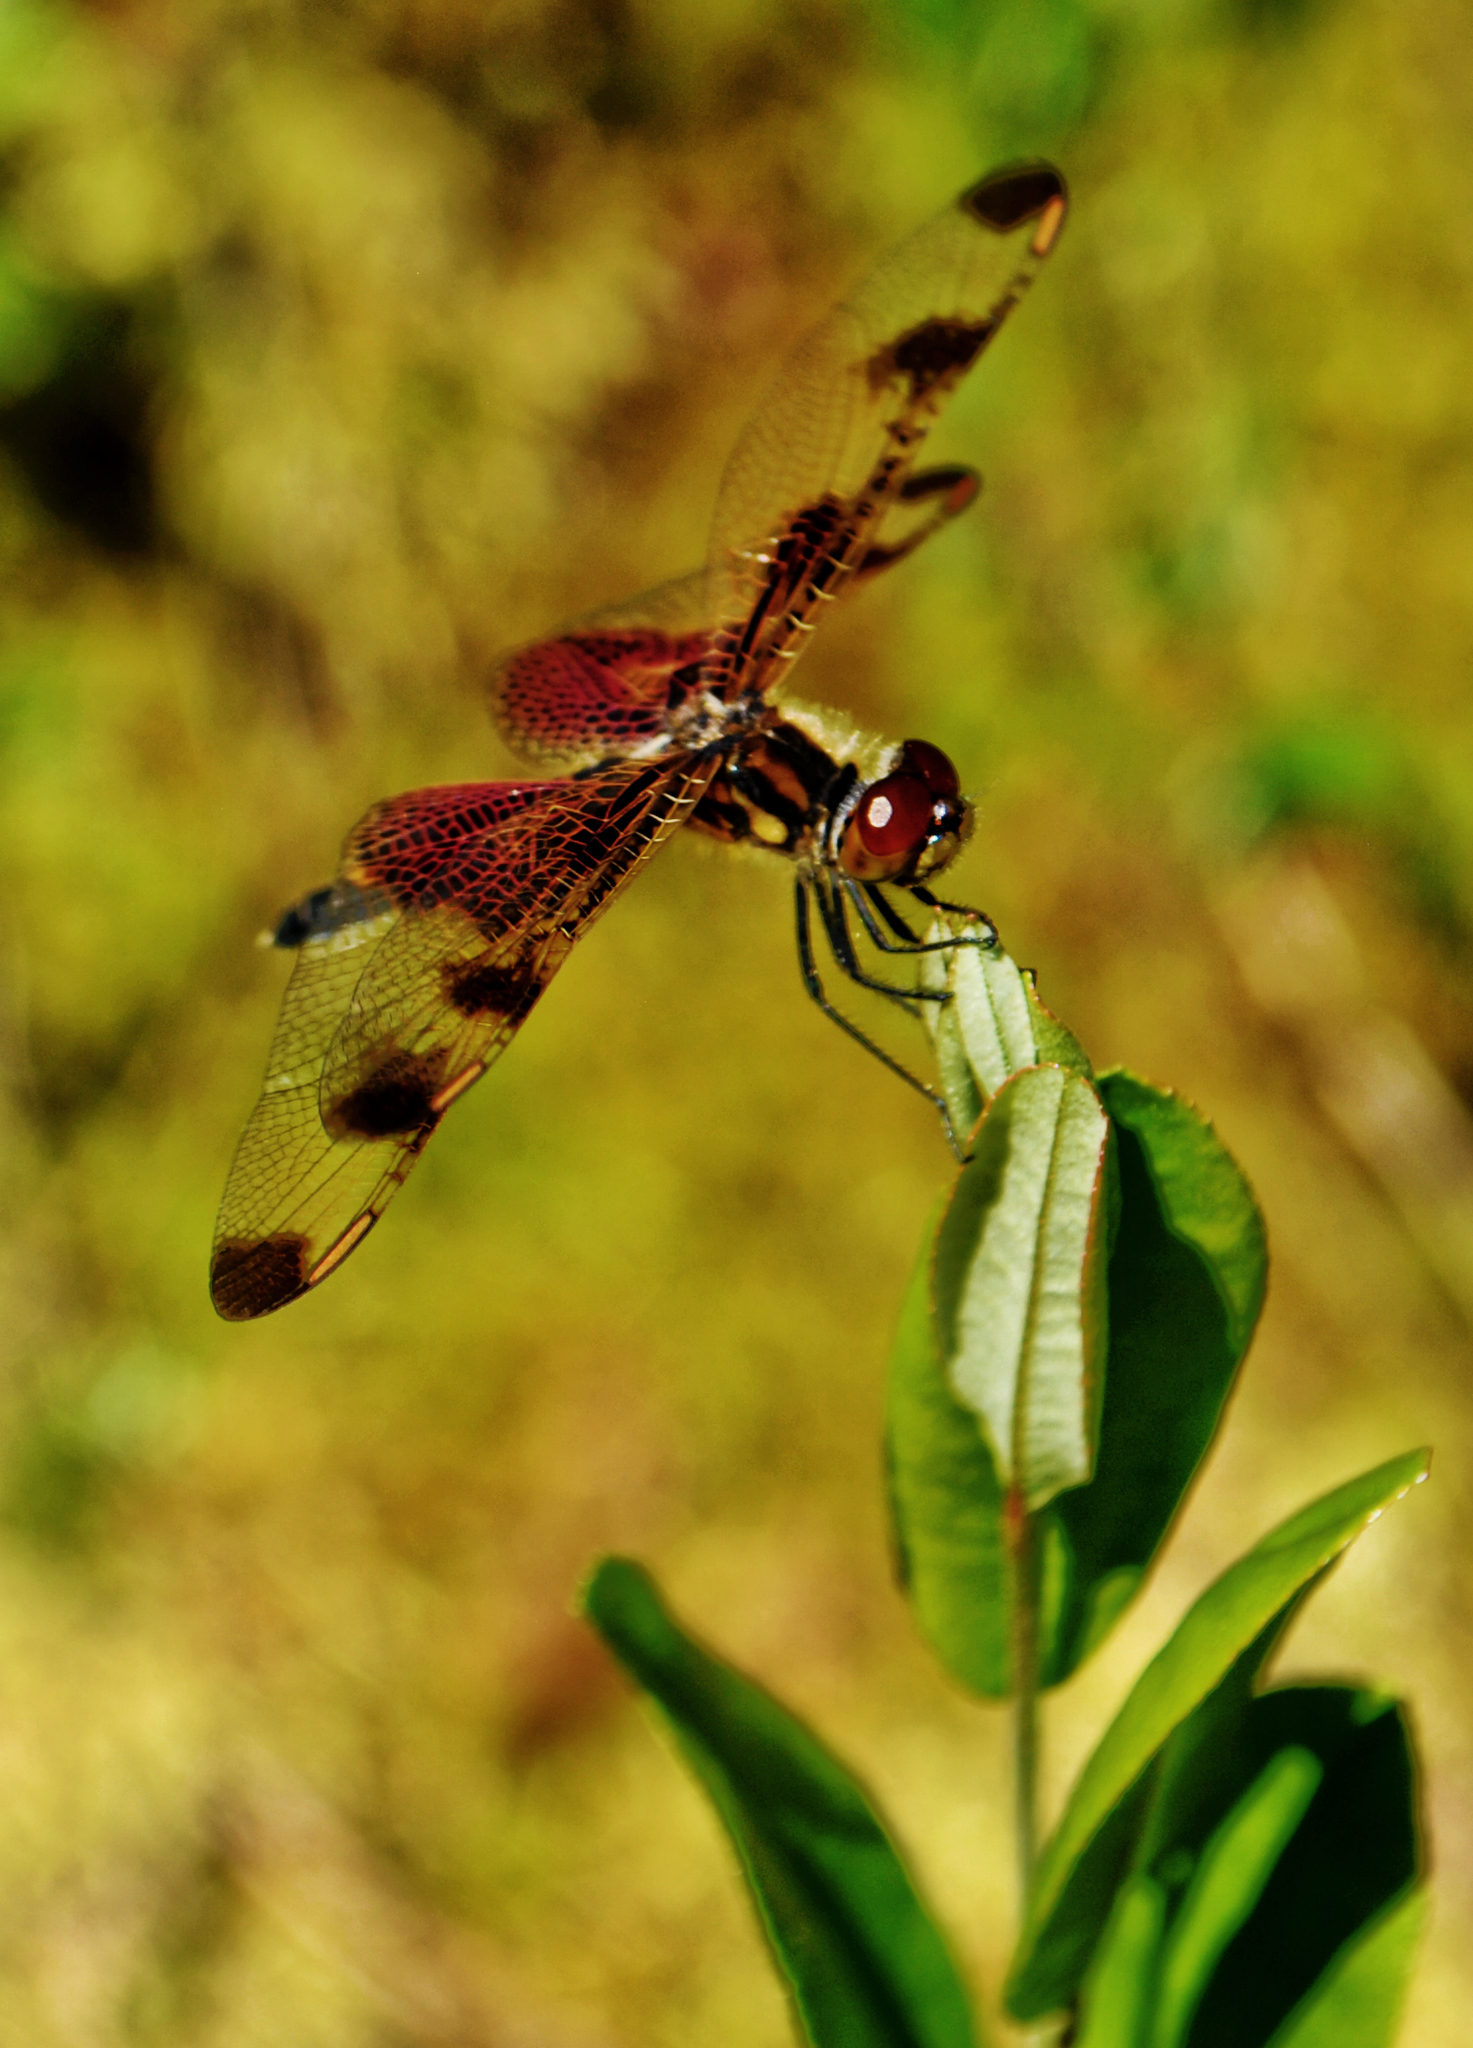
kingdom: Animalia
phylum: Arthropoda
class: Insecta
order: Odonata
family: Libellulidae
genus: Celithemis
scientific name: Celithemis elisa
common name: Calico pennant
